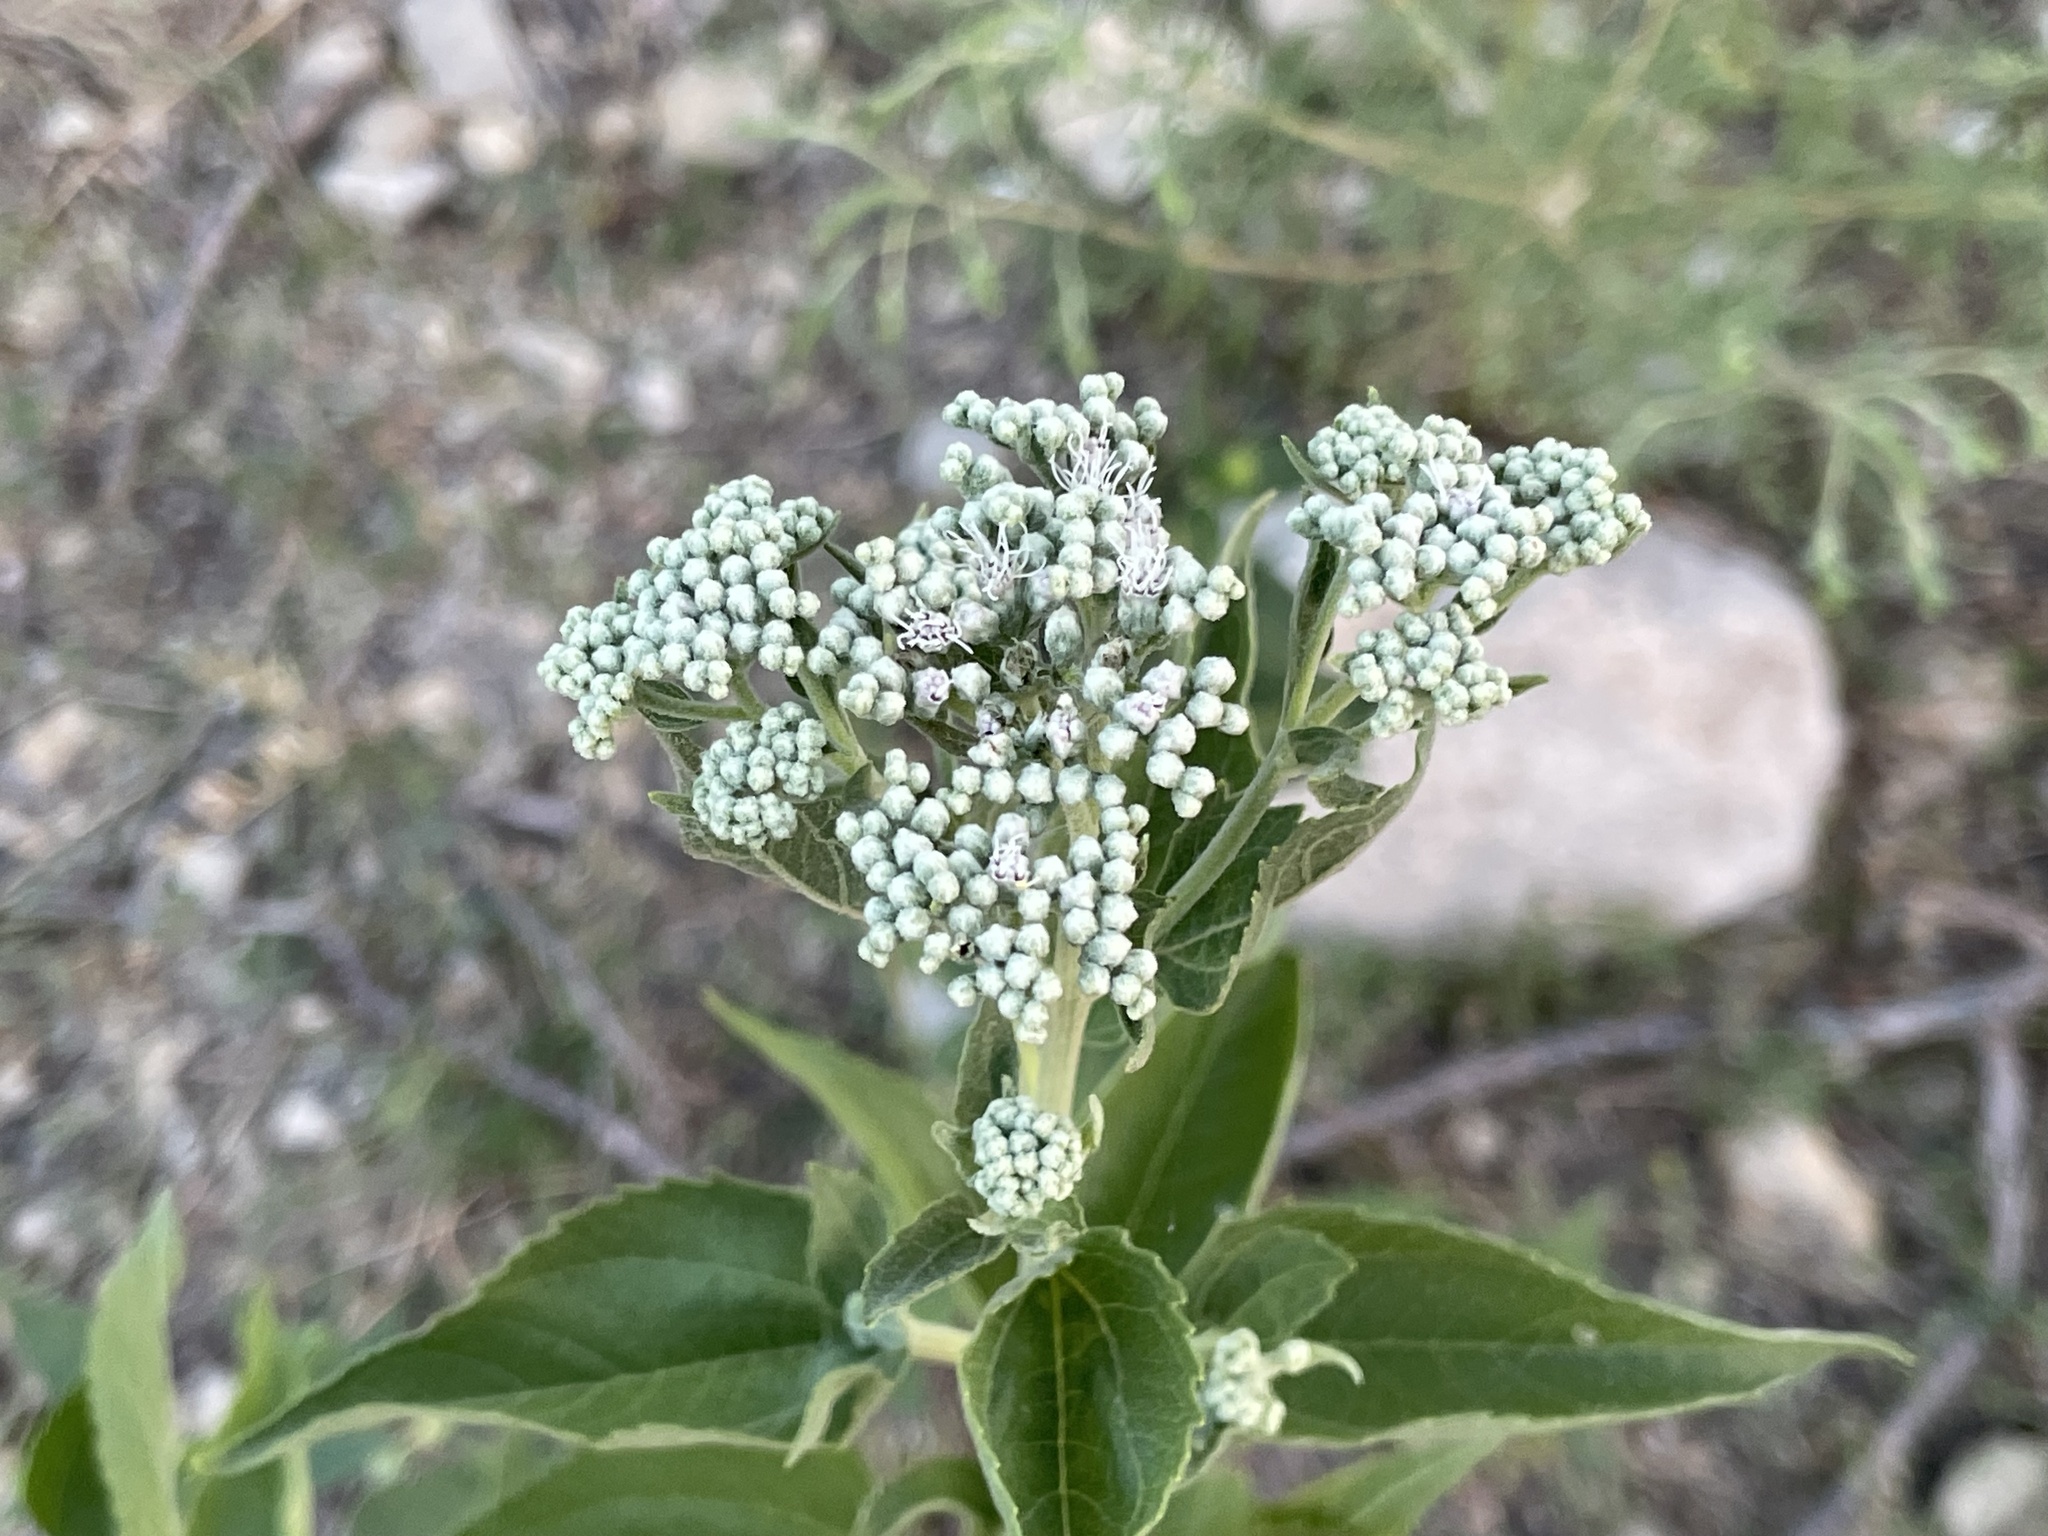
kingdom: Plantae
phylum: Tracheophyta
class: Magnoliopsida
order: Asterales
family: Asteraceae
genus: Eupatorium
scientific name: Eupatorium serotinum
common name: Late boneset
